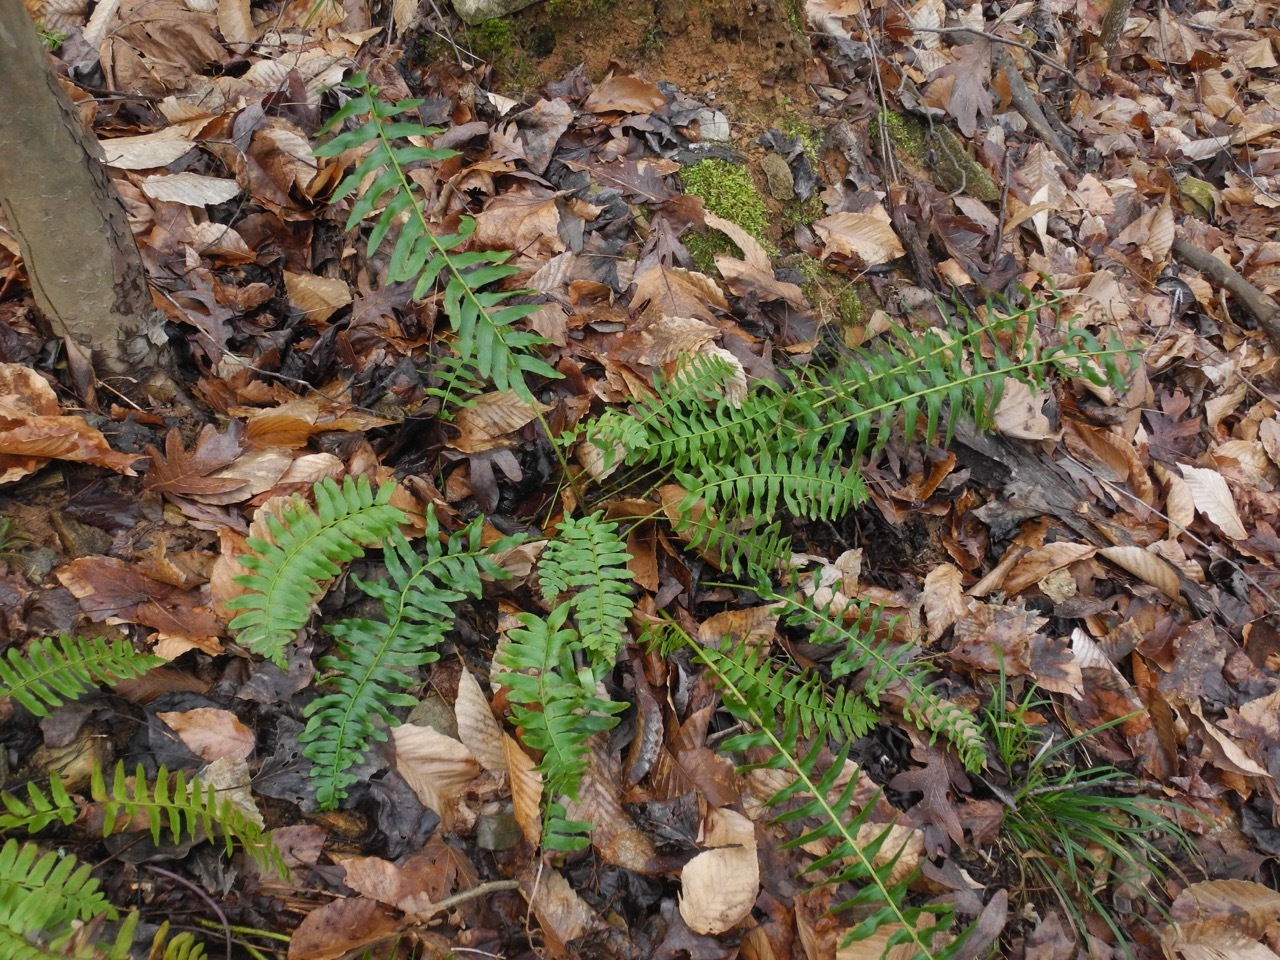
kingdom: Plantae
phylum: Tracheophyta
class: Polypodiopsida
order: Polypodiales
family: Dryopteridaceae
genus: Polystichum
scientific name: Polystichum acrostichoides
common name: Christmas fern
